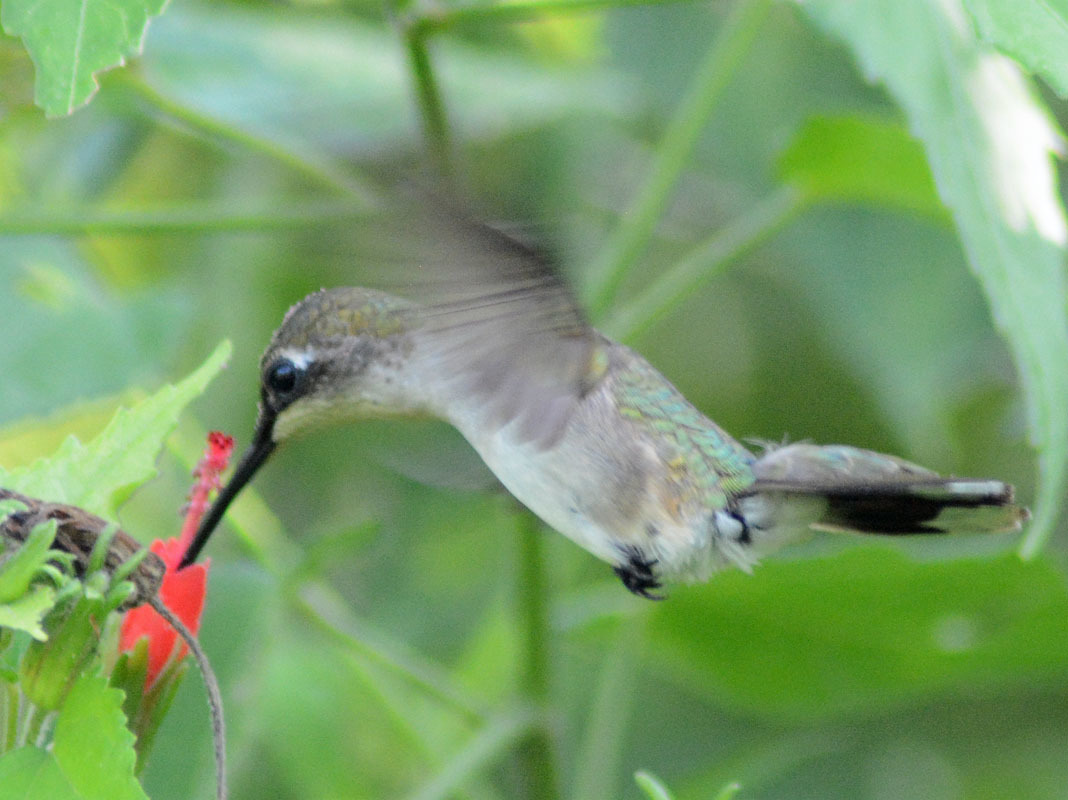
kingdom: Animalia
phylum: Chordata
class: Aves
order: Apodiformes
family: Trochilidae
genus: Archilochus
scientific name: Archilochus colubris
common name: Ruby-throated hummingbird
